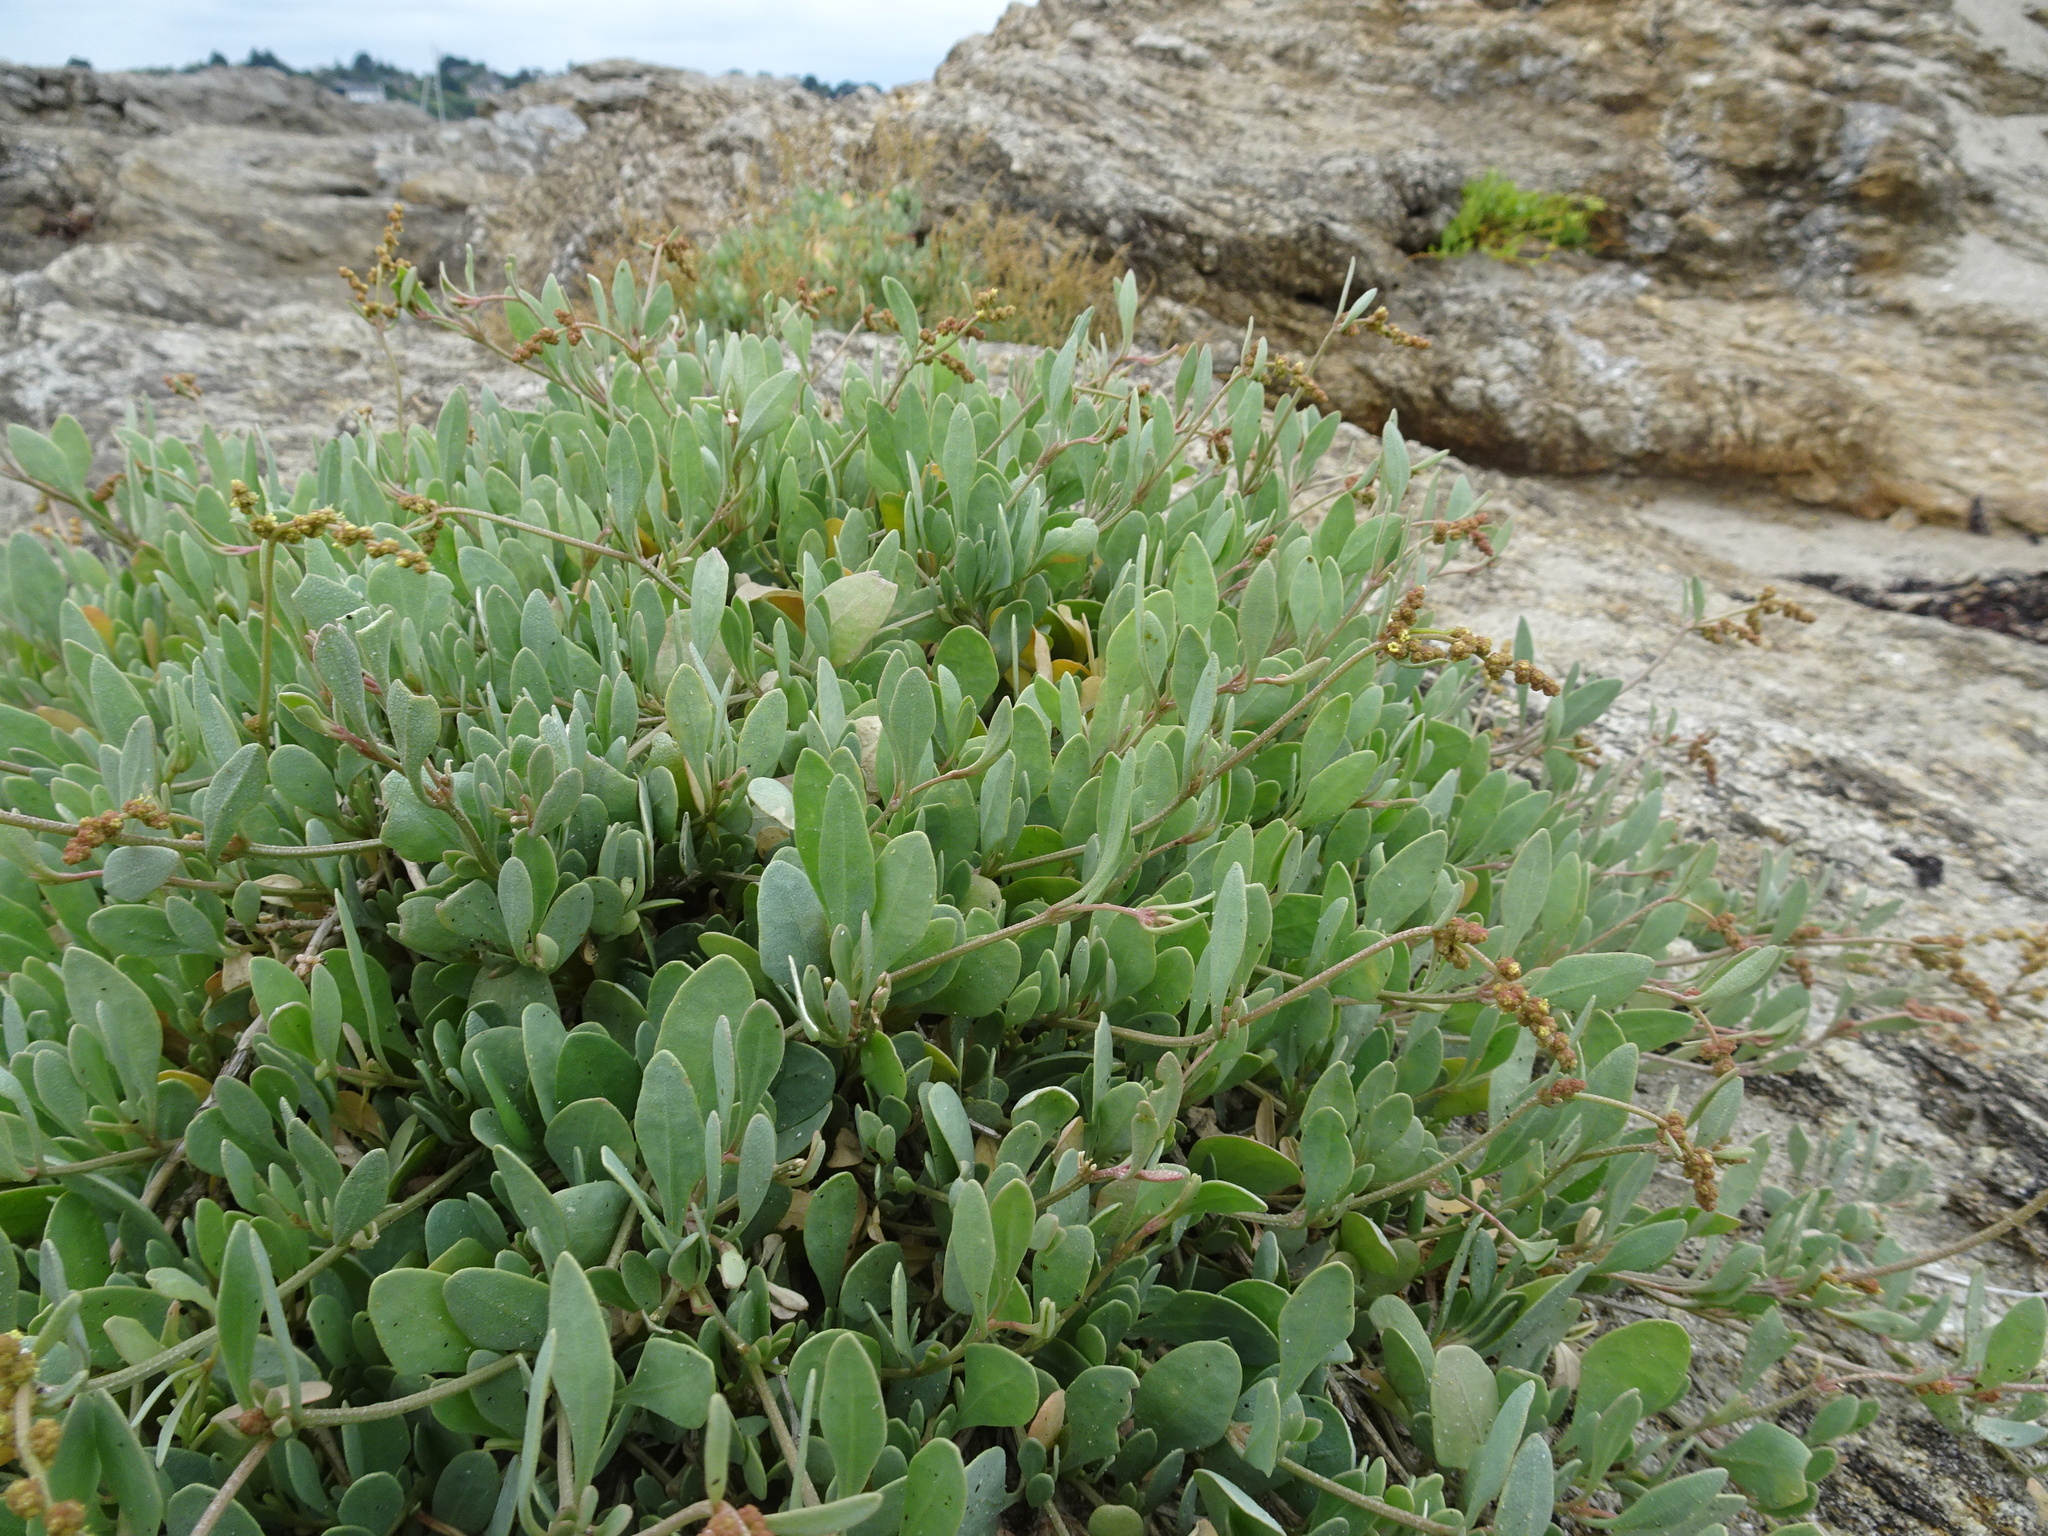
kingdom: Plantae
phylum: Tracheophyta
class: Magnoliopsida
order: Caryophyllales
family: Amaranthaceae
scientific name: Amaranthaceae
